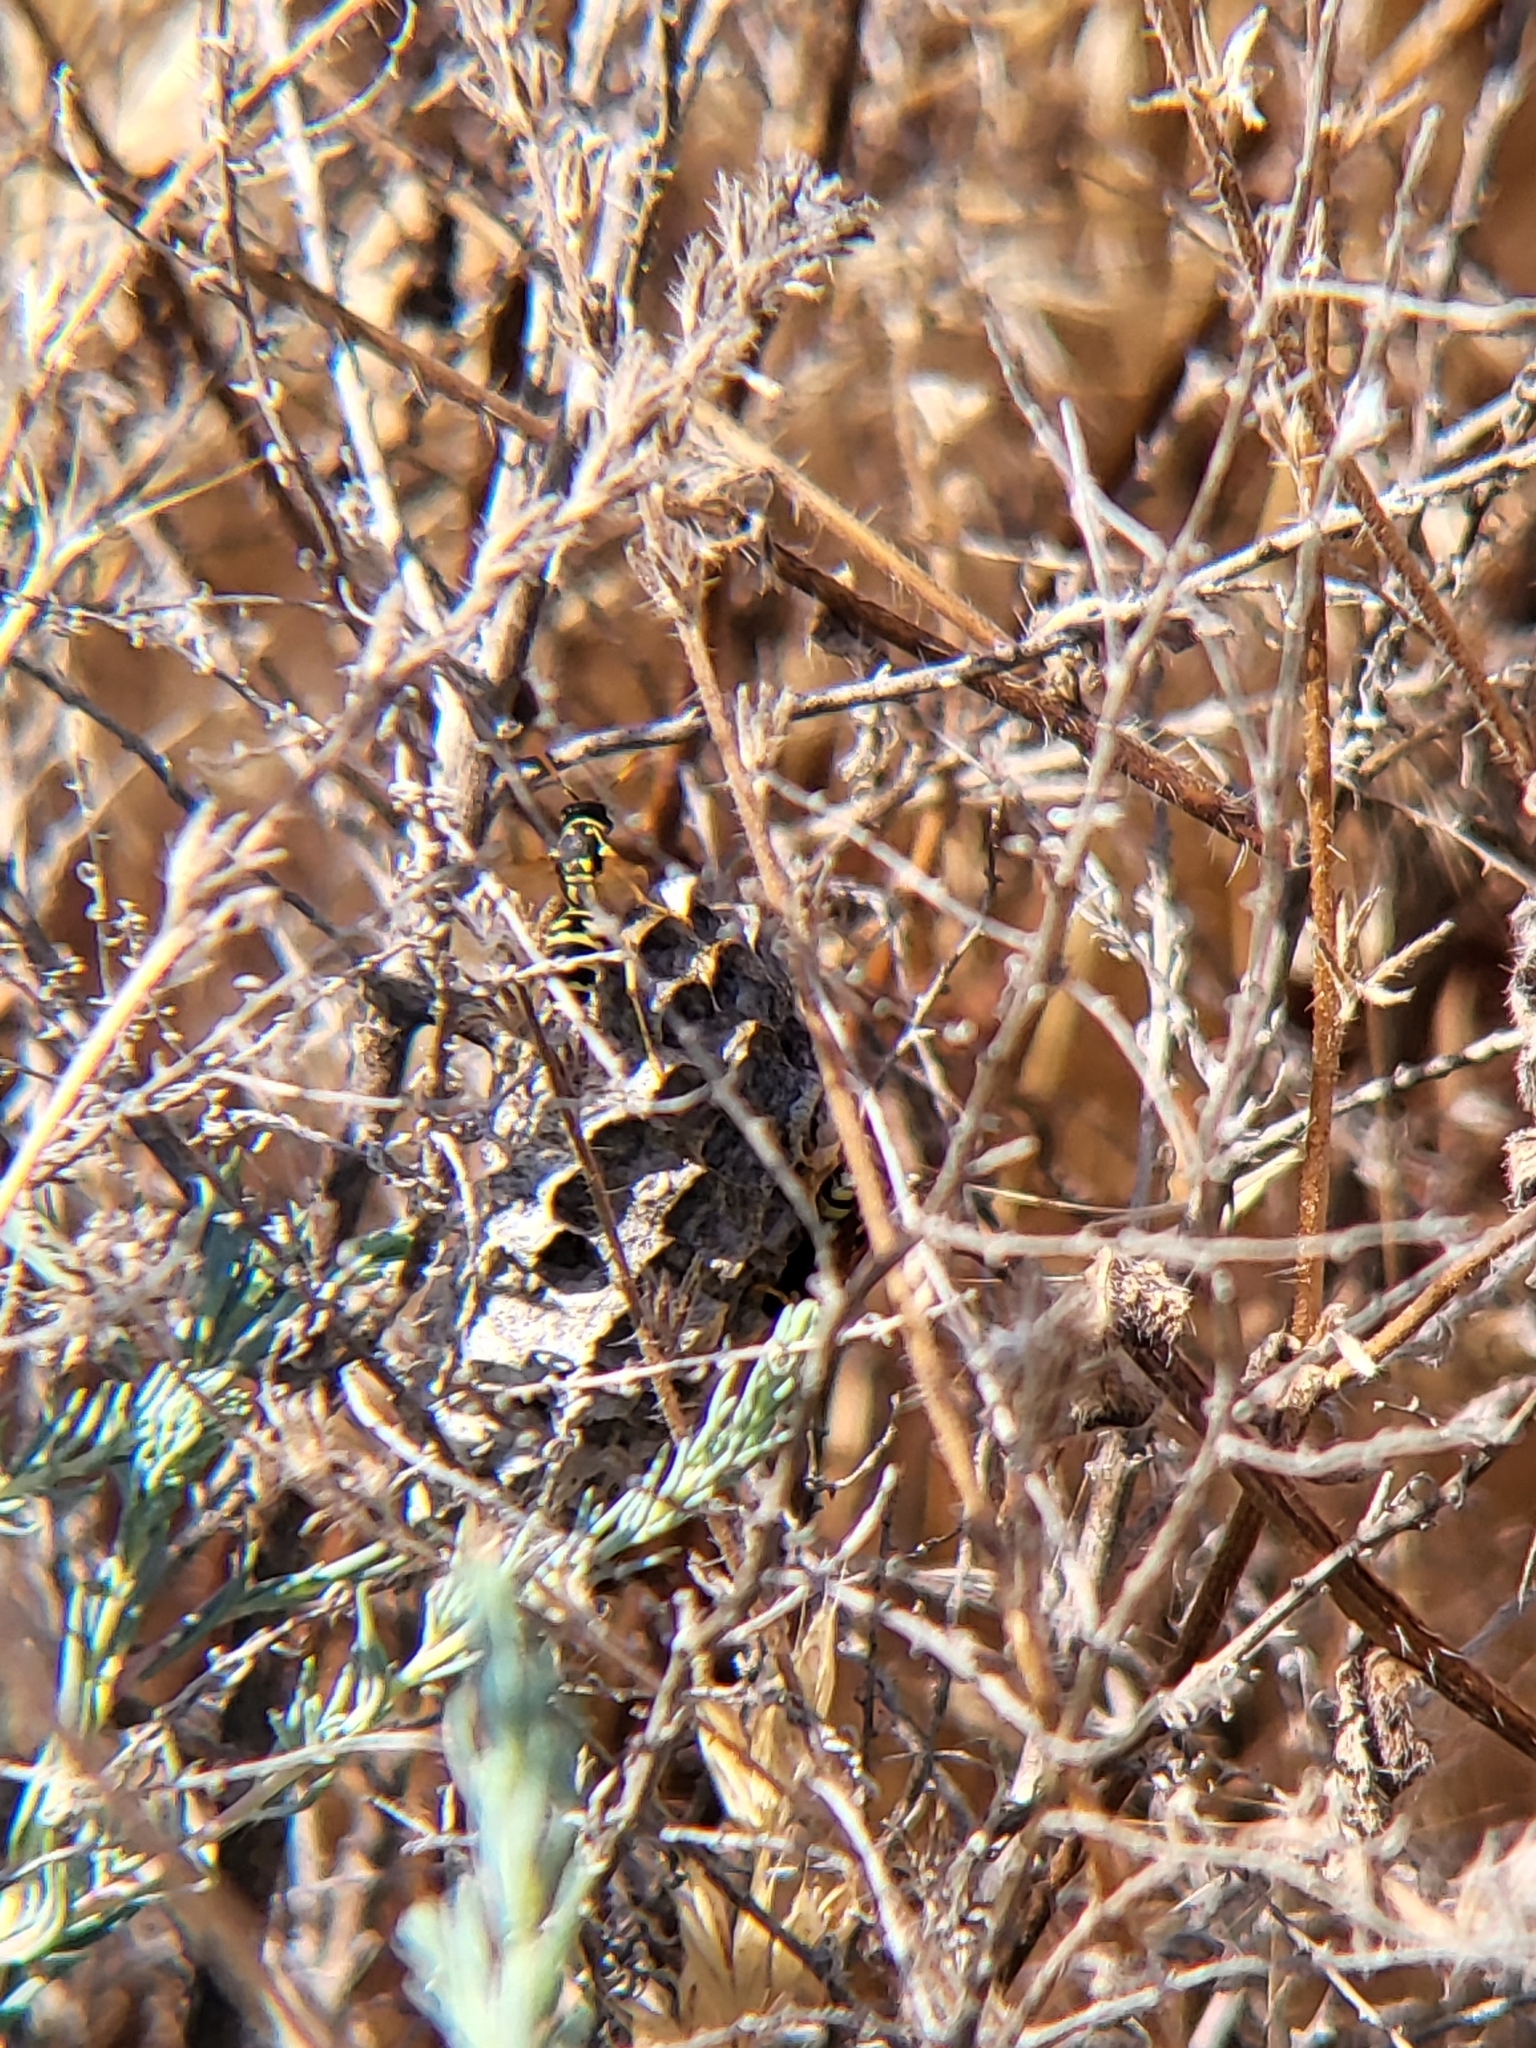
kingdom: Animalia
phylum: Arthropoda
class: Insecta
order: Hymenoptera
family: Eumenidae
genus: Polistes
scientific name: Polistes dominula
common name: Paper wasp
